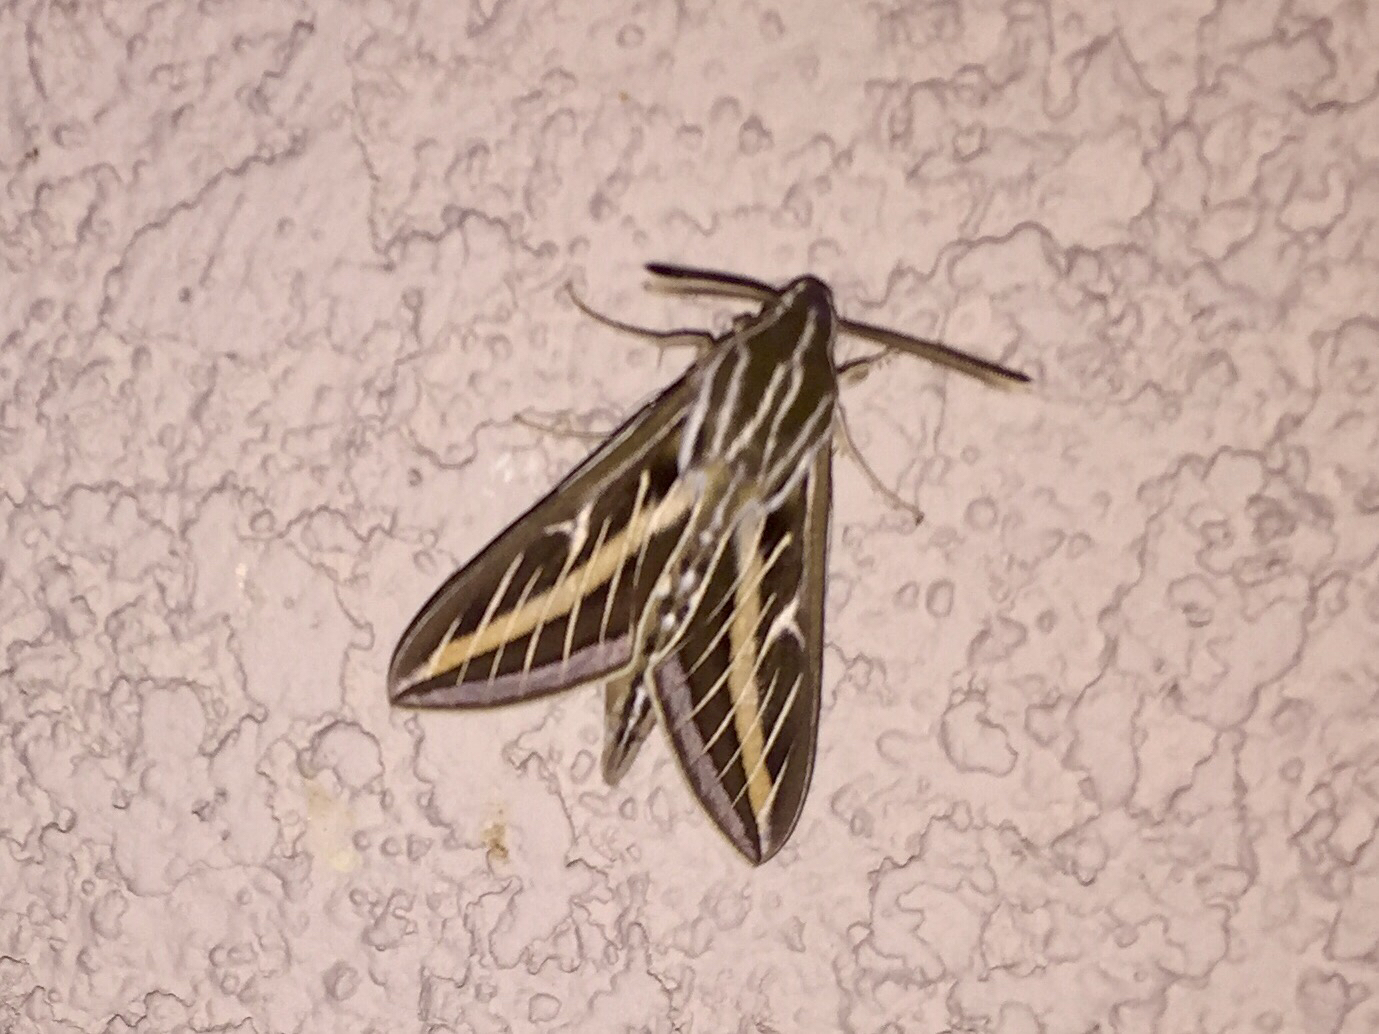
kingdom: Animalia
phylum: Arthropoda
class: Insecta
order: Lepidoptera
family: Sphingidae
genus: Hyles
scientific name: Hyles lineata
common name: White-lined sphinx
